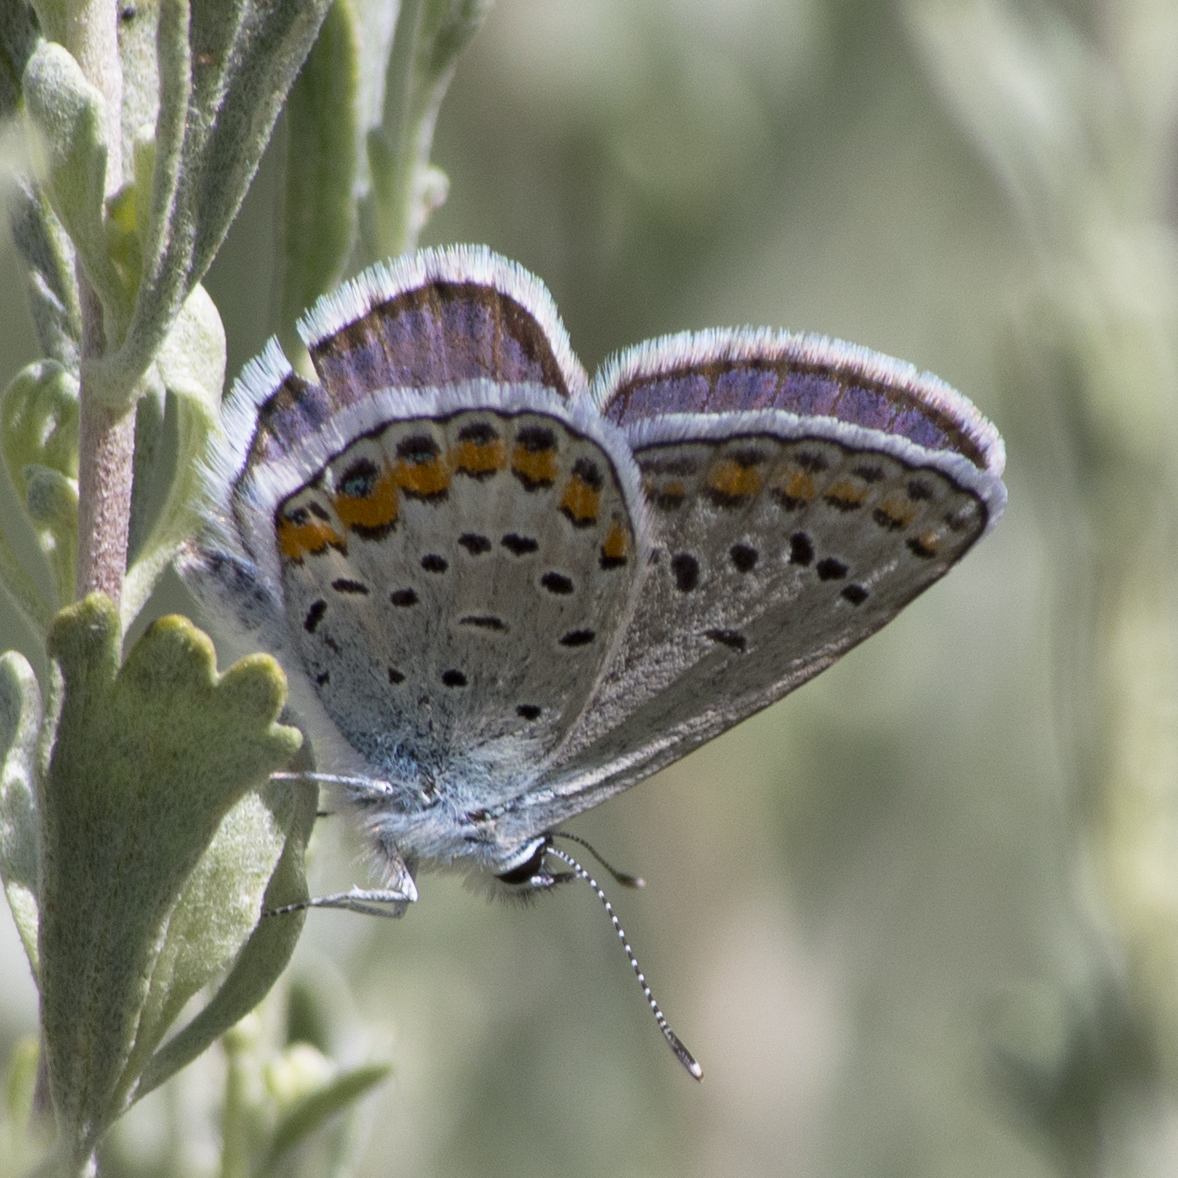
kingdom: Animalia
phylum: Arthropoda
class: Insecta
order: Lepidoptera
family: Lycaenidae
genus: Lycaeides
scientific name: Lycaeides melissa
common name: Melissa blue
